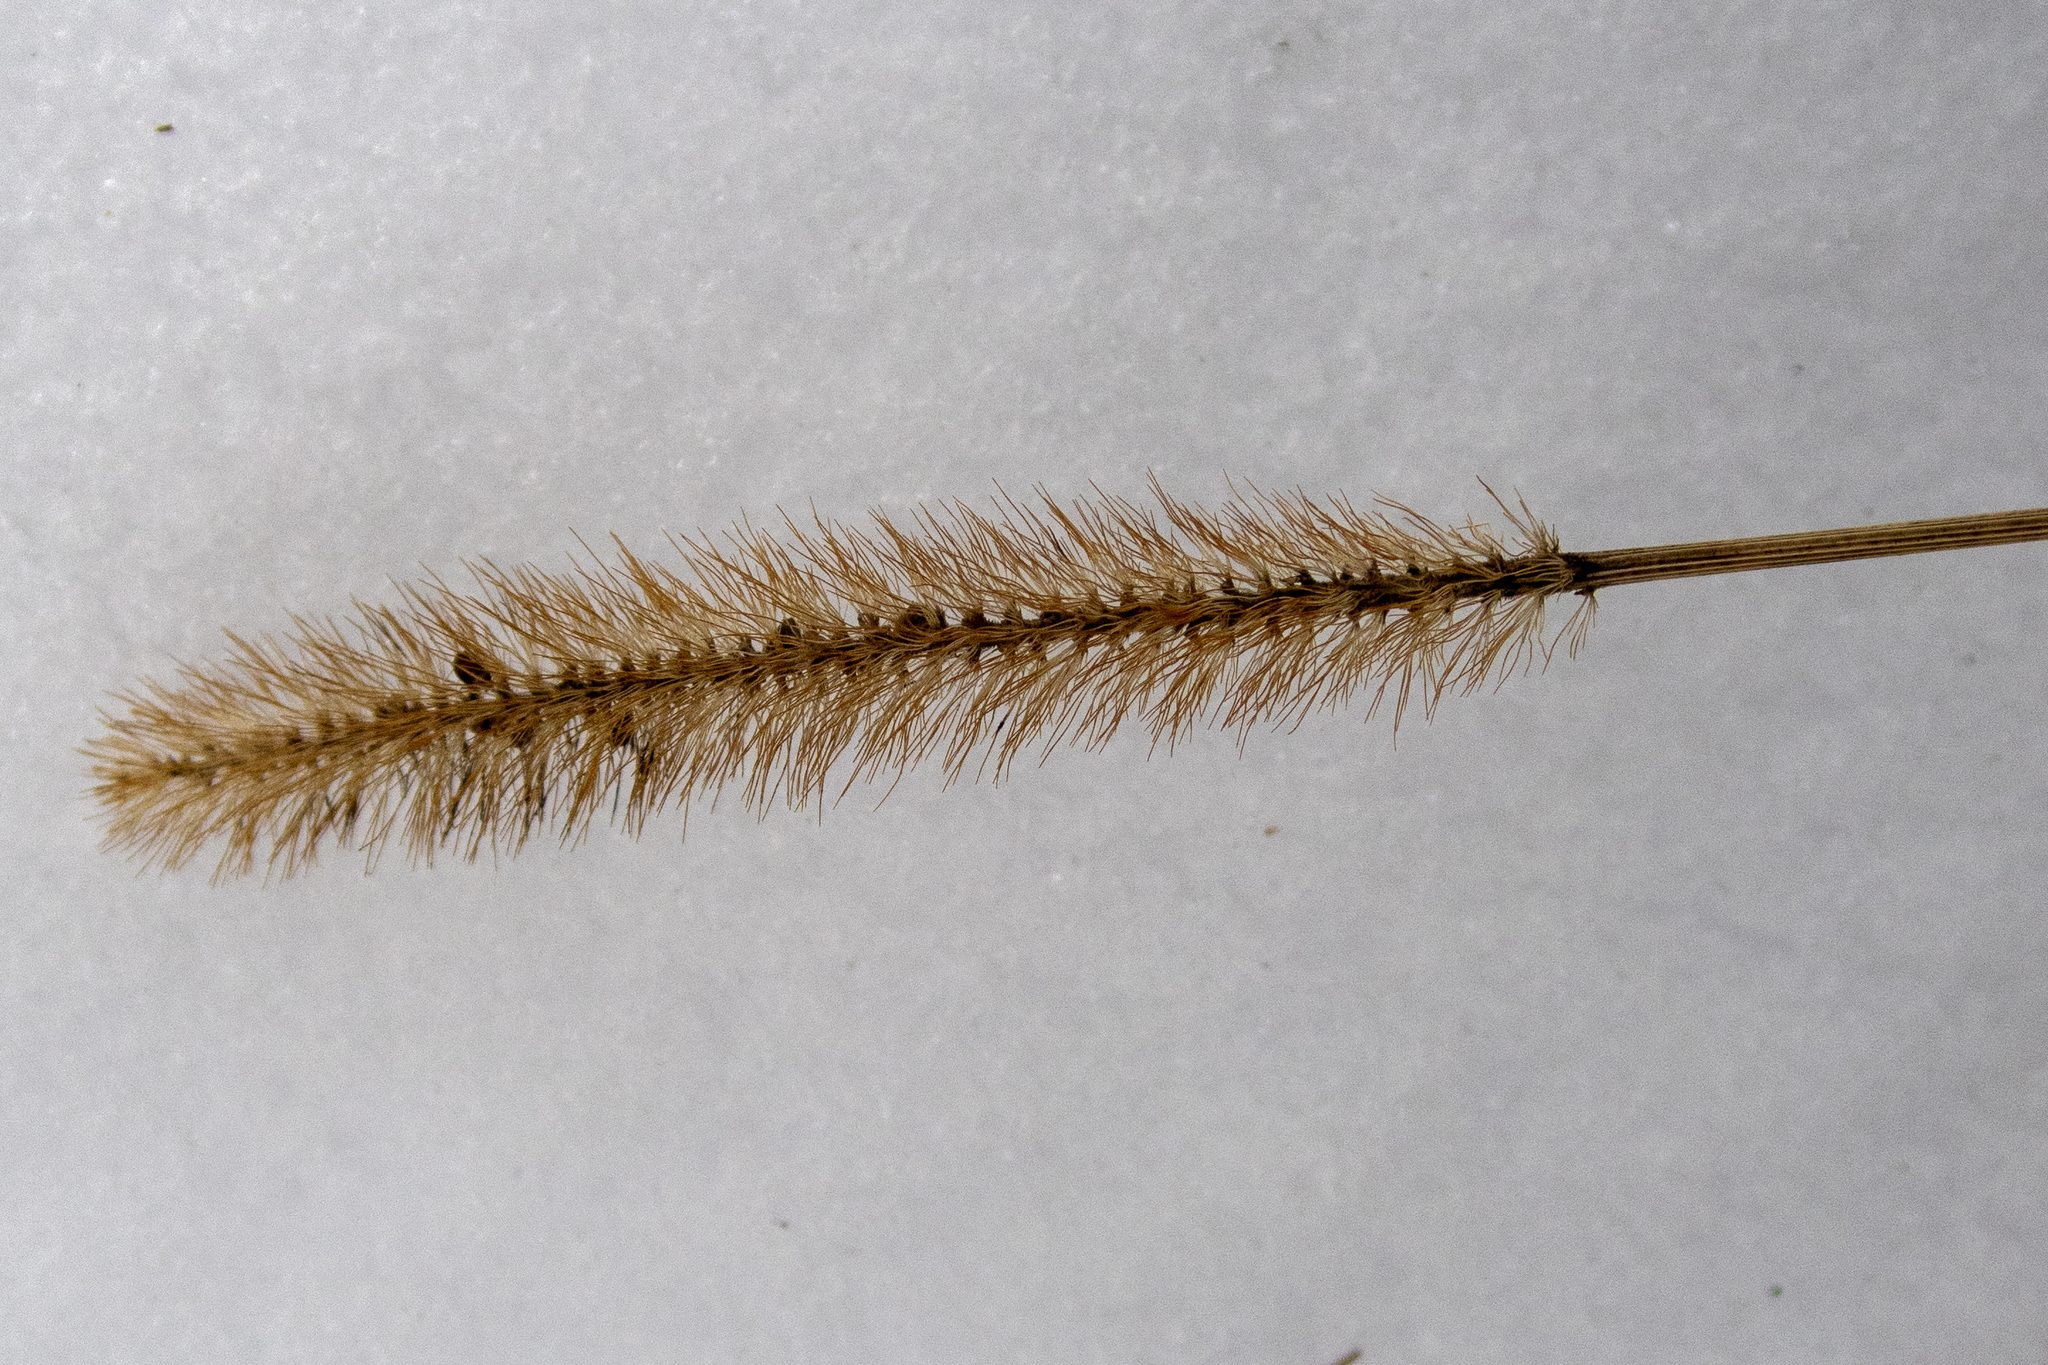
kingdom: Plantae
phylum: Tracheophyta
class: Liliopsida
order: Poales
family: Poaceae
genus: Setaria
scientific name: Setaria pumila
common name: Yellow bristle-grass
